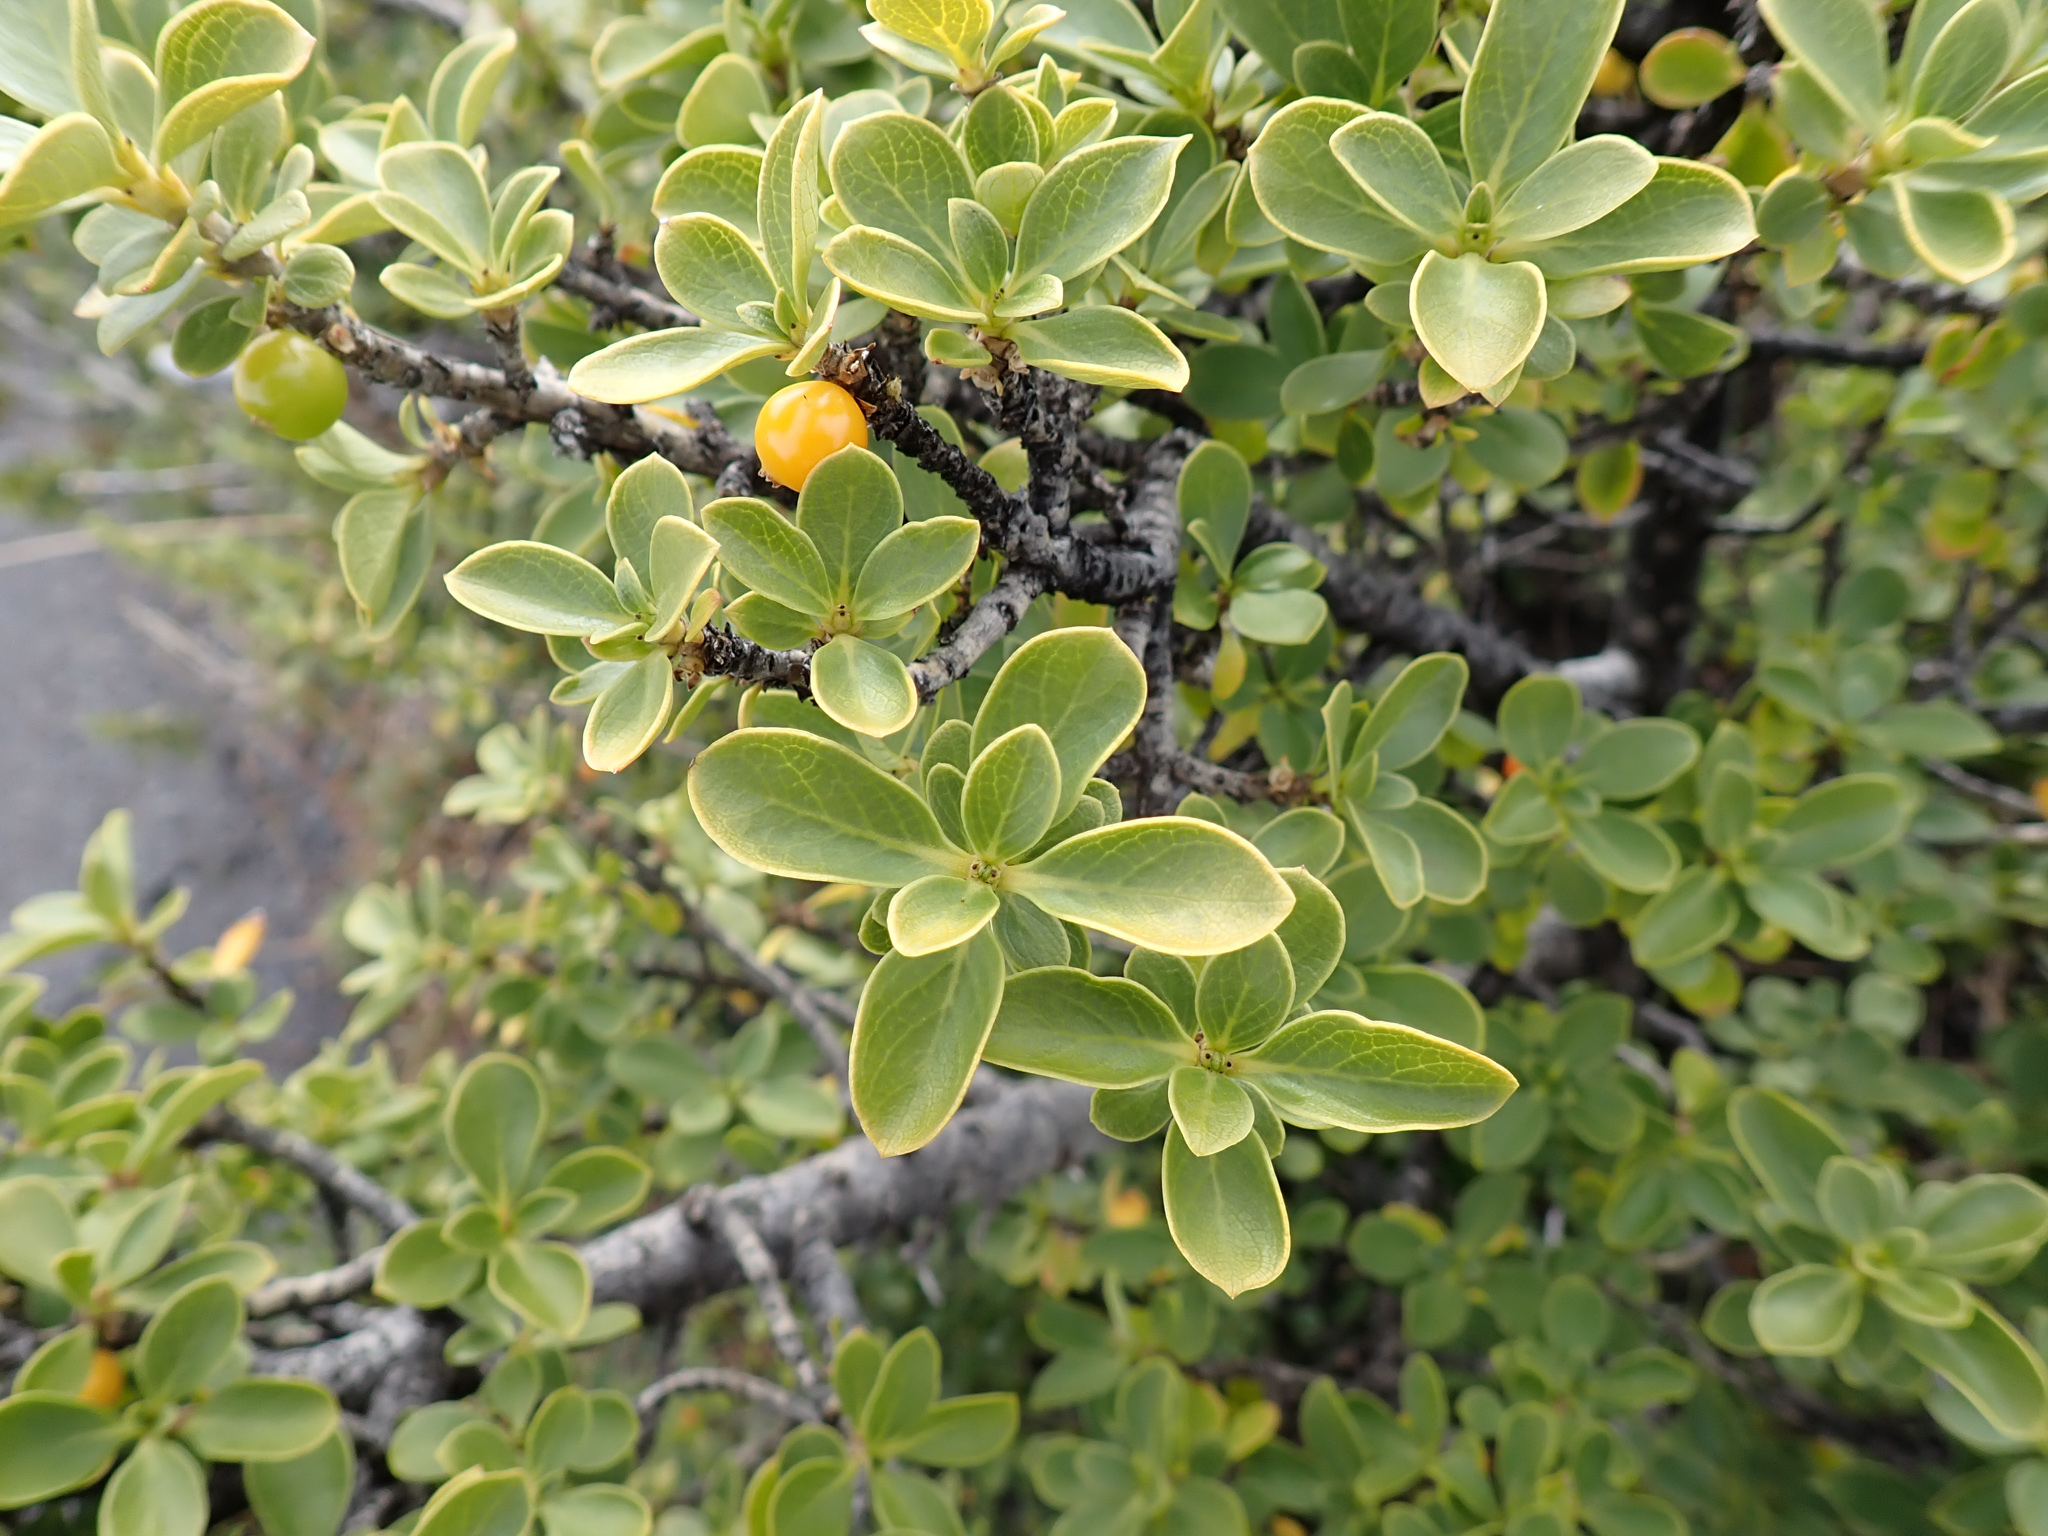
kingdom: Plantae
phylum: Tracheophyta
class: Magnoliopsida
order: Gentianales
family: Rubiaceae
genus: Coprosma
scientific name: Coprosma montana
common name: Alpine mirror plant
